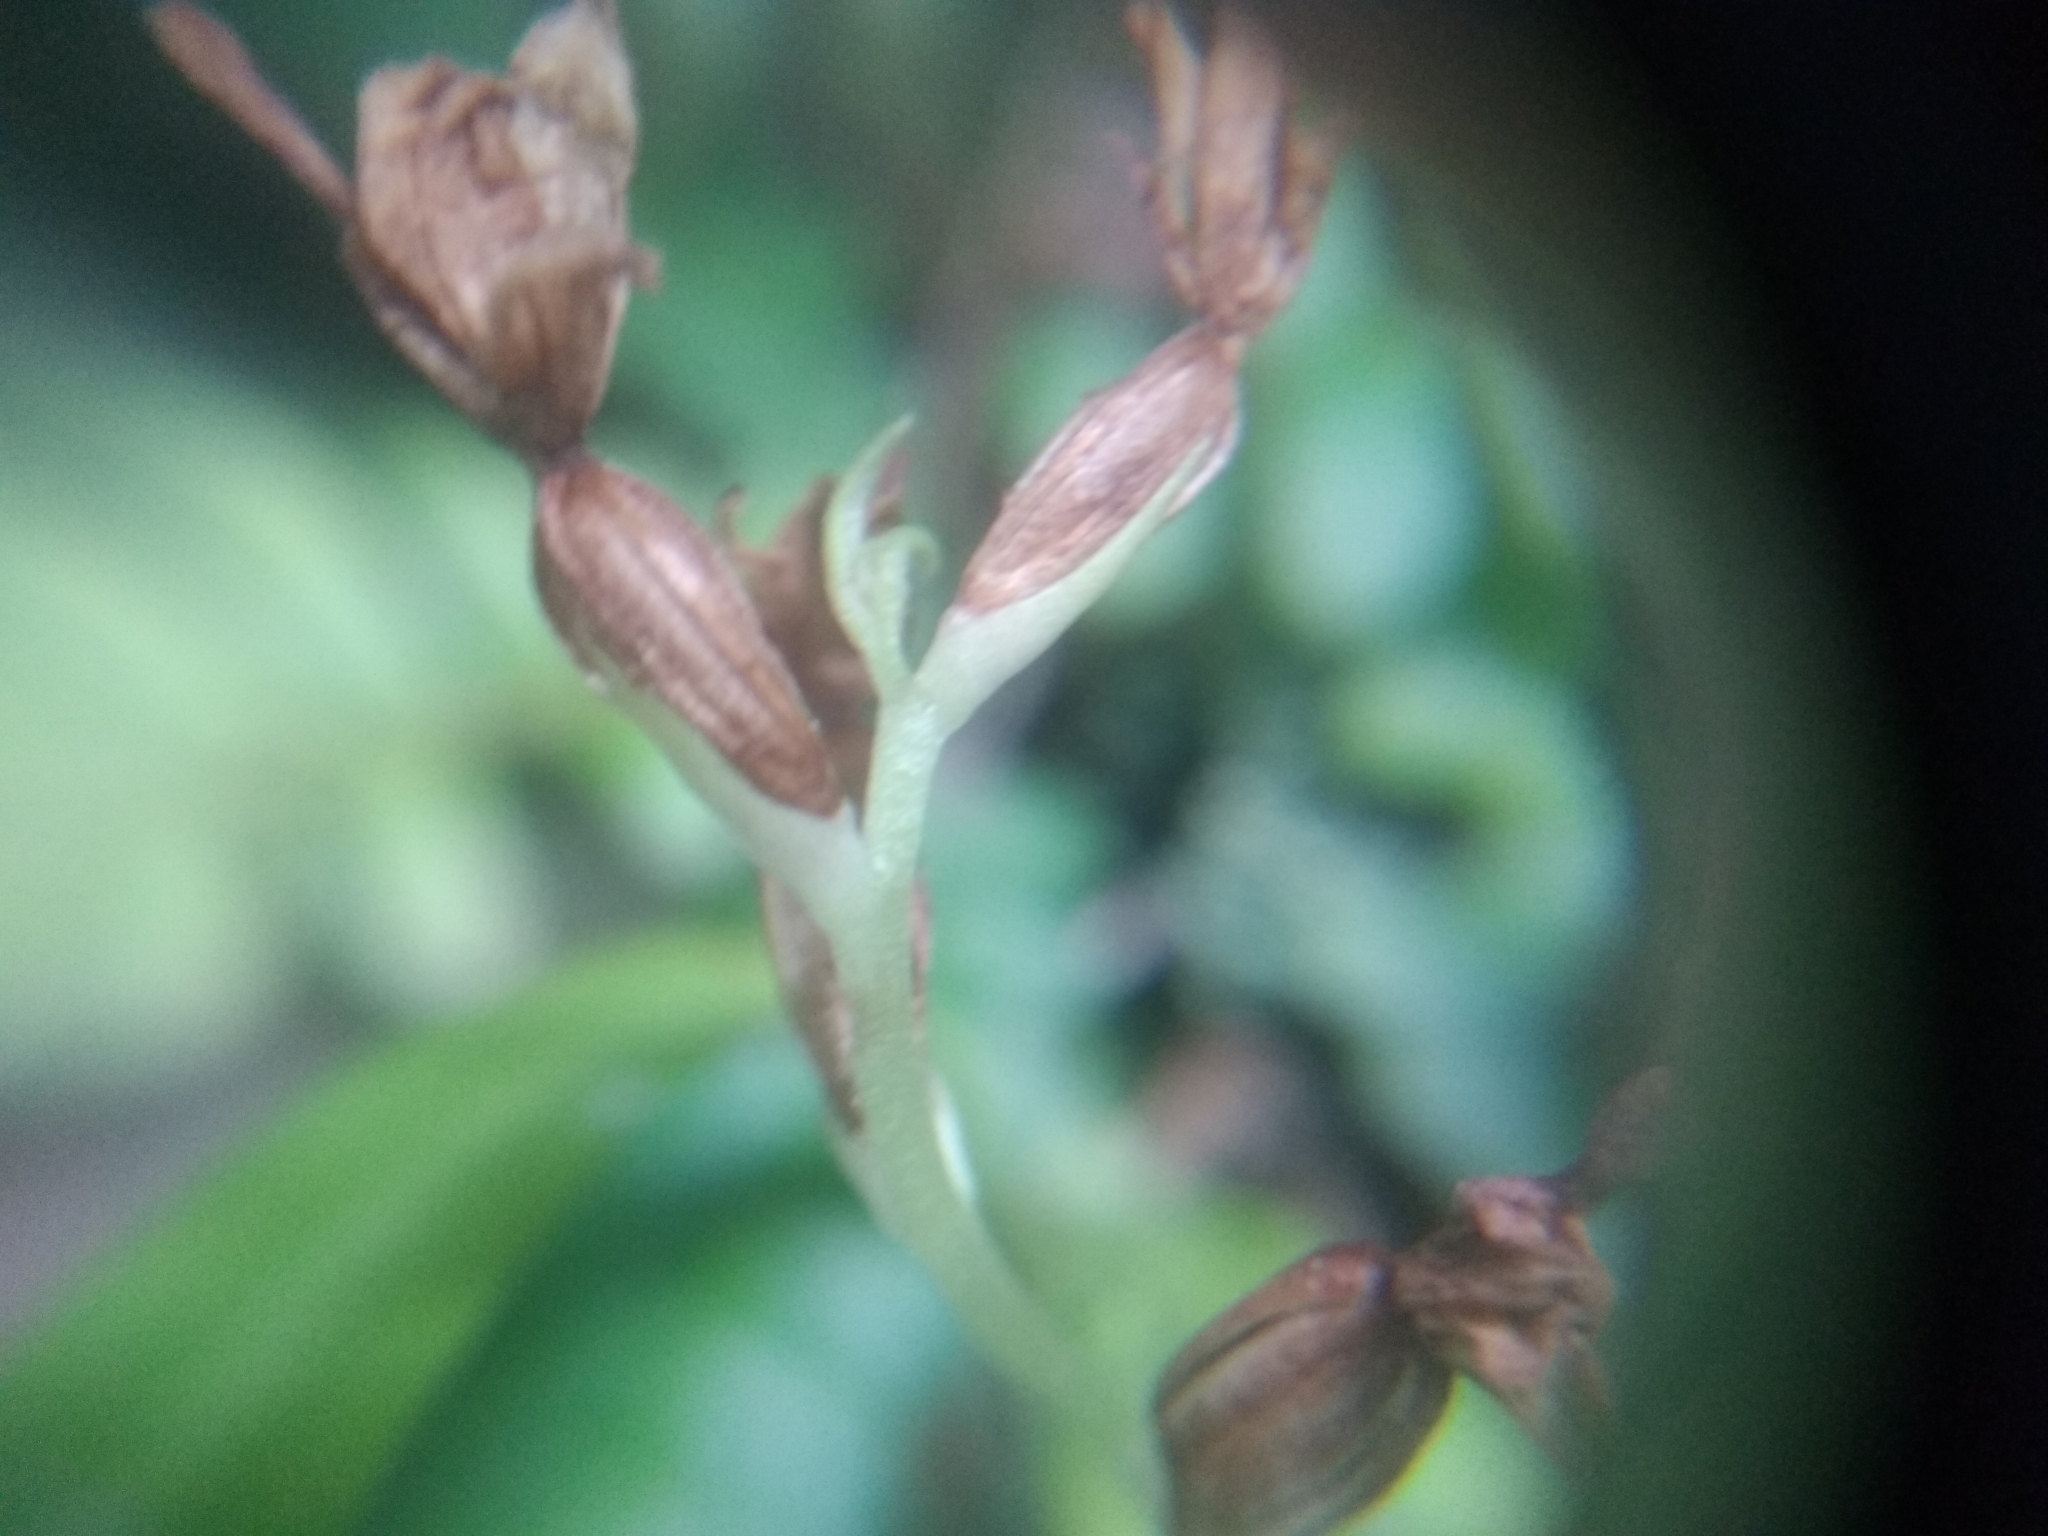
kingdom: Plantae
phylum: Tracheophyta
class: Liliopsida
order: Asparagales
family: Orchidaceae
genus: Disa
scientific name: Disa uncinata
